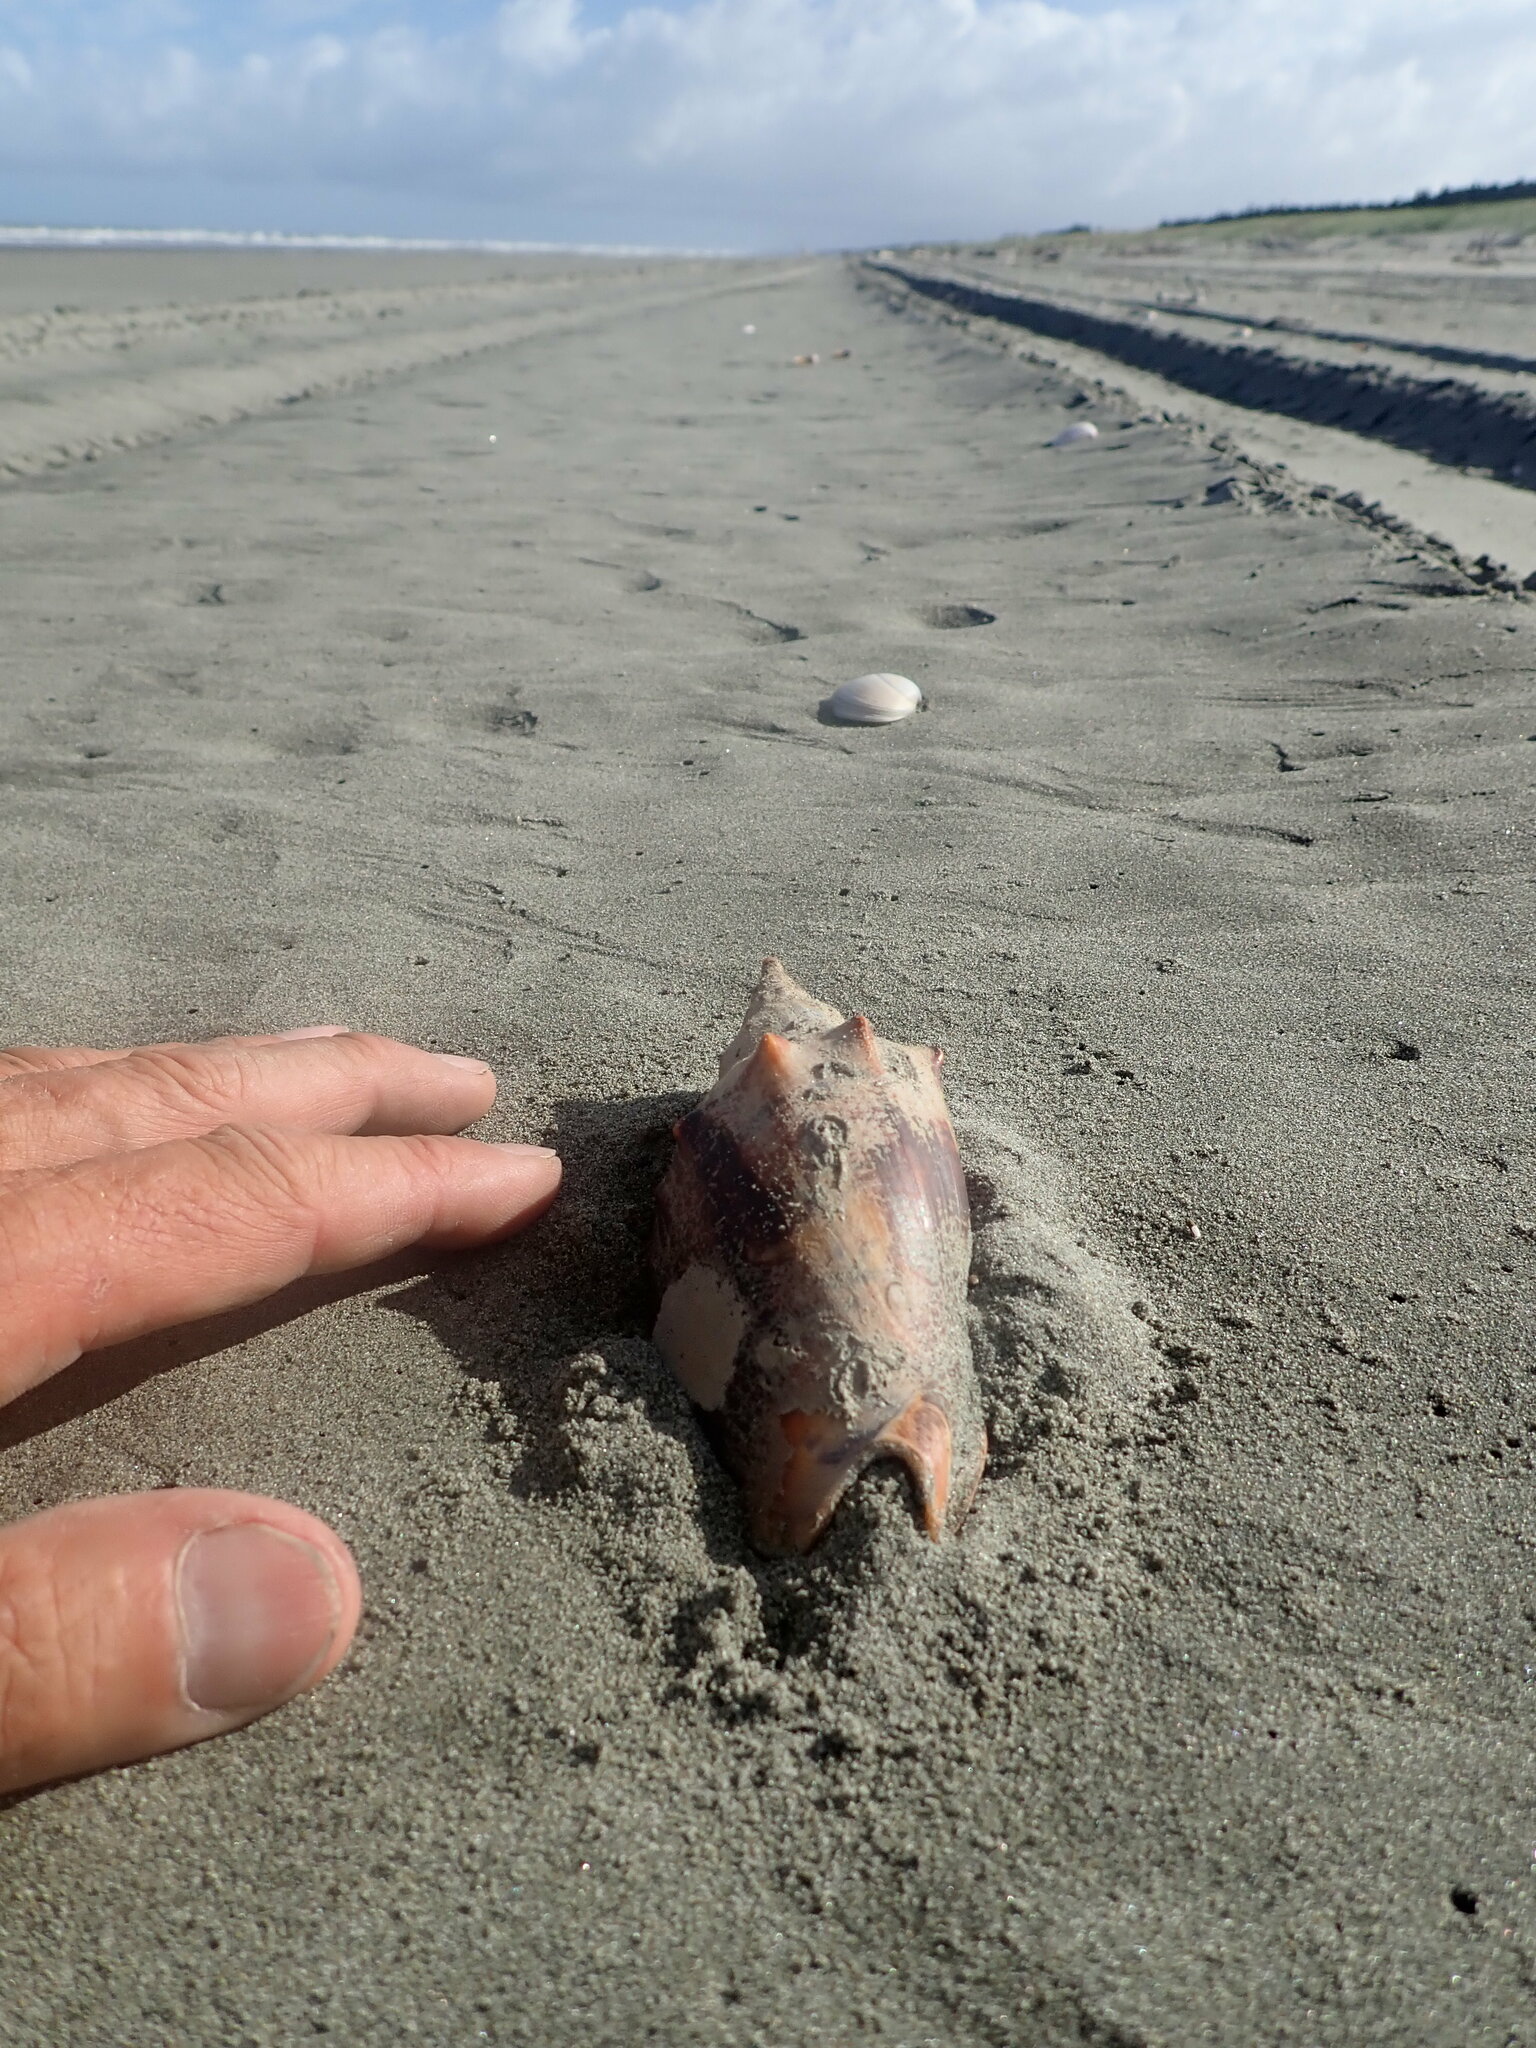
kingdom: Animalia
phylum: Mollusca
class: Gastropoda
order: Neogastropoda
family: Volutidae
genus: Alcithoe
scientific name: Alcithoe arabica
